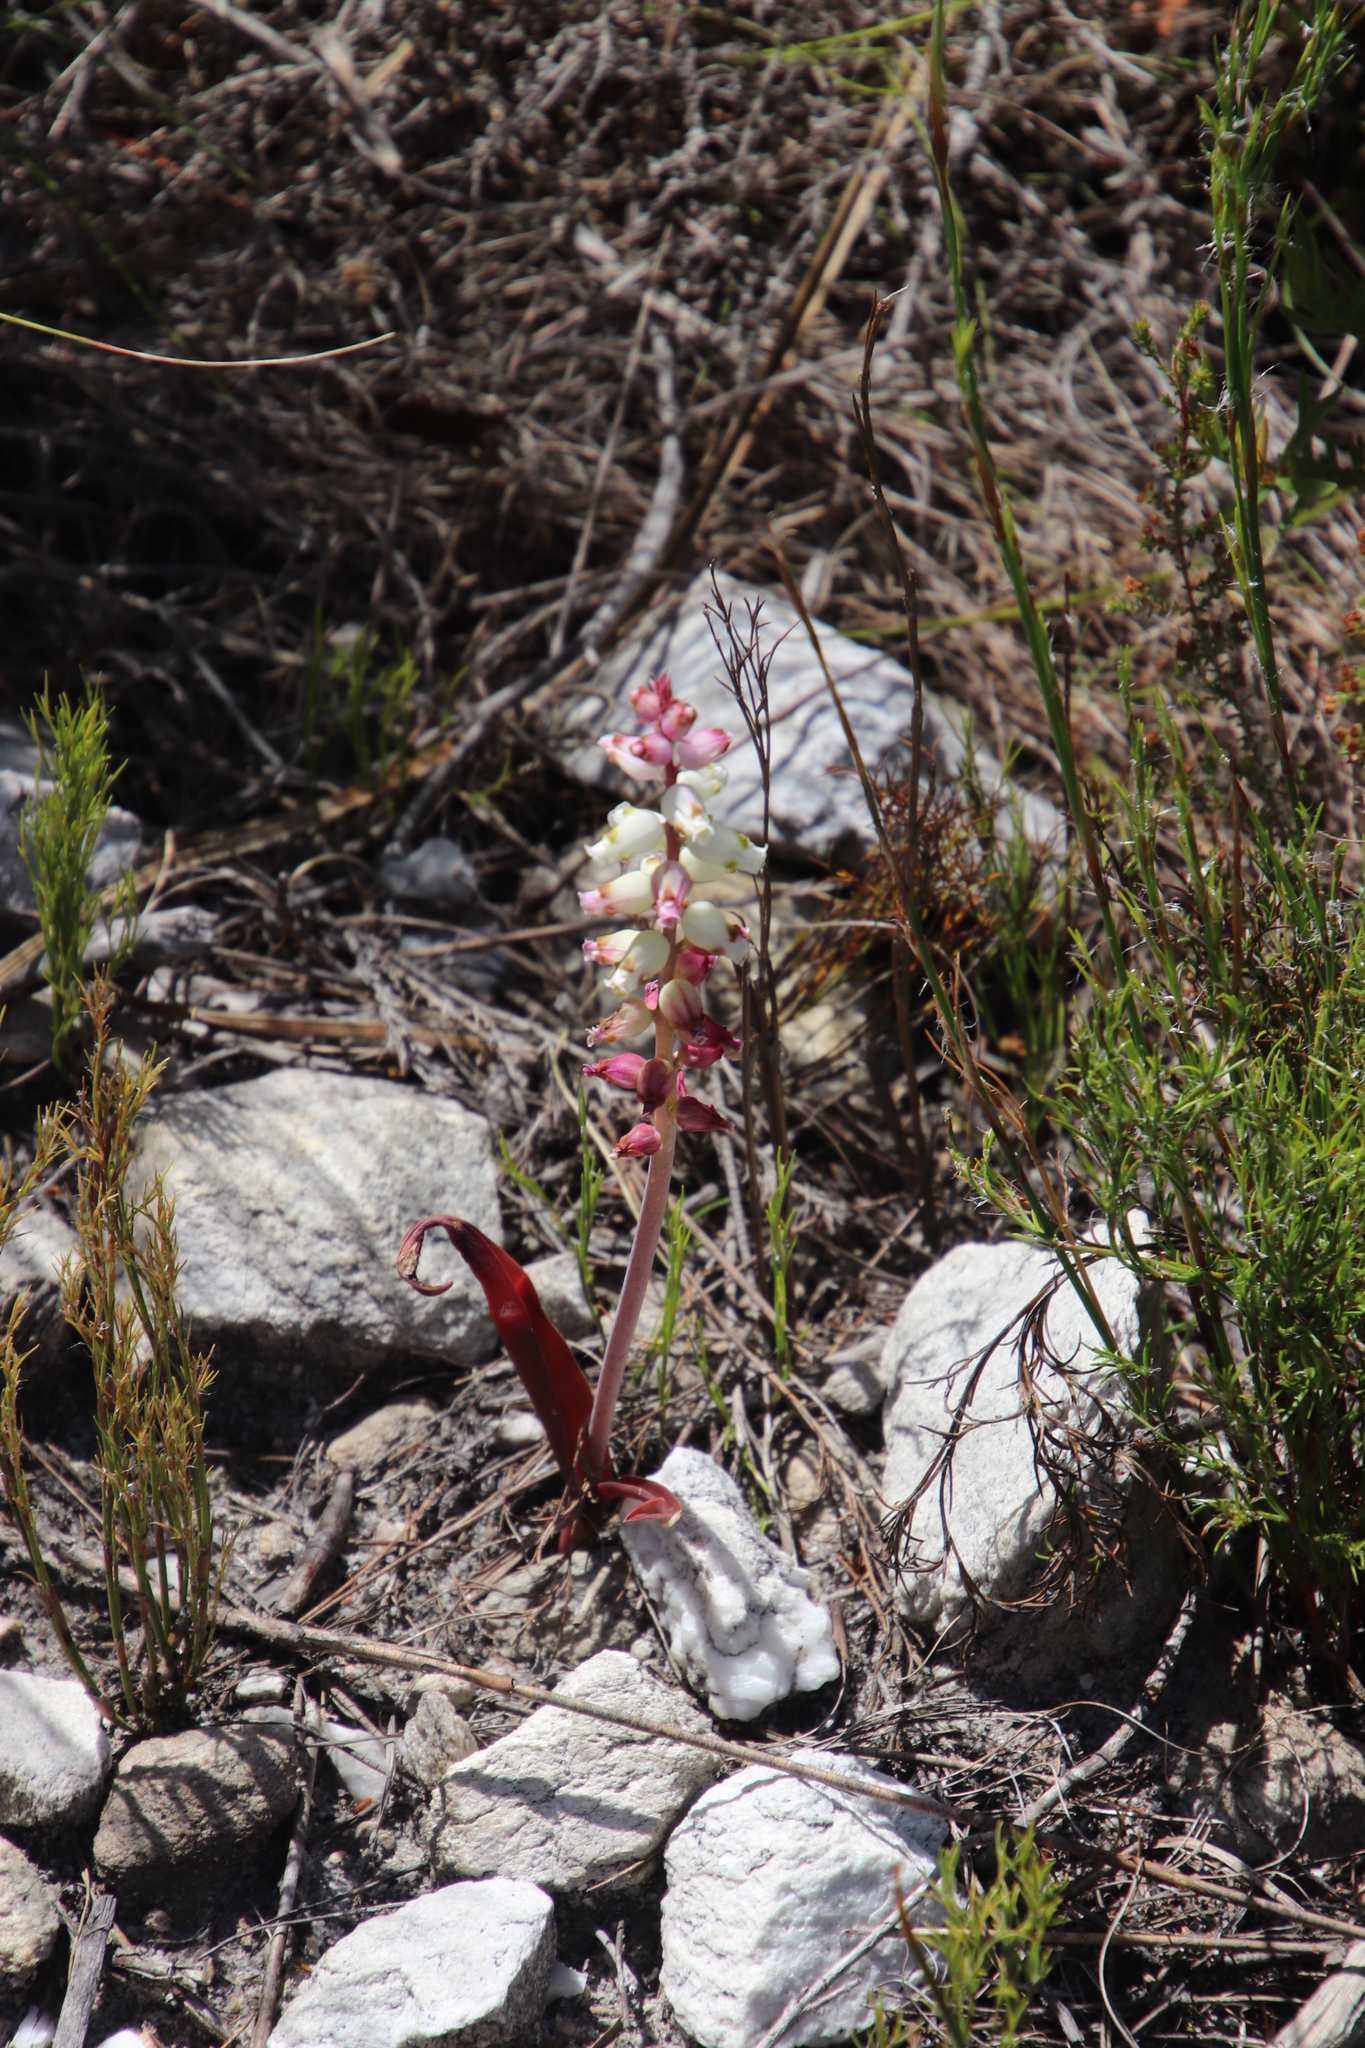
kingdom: Plantae
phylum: Tracheophyta
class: Liliopsida
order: Asparagales
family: Asparagaceae
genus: Lachenalia
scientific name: Lachenalia peersii
